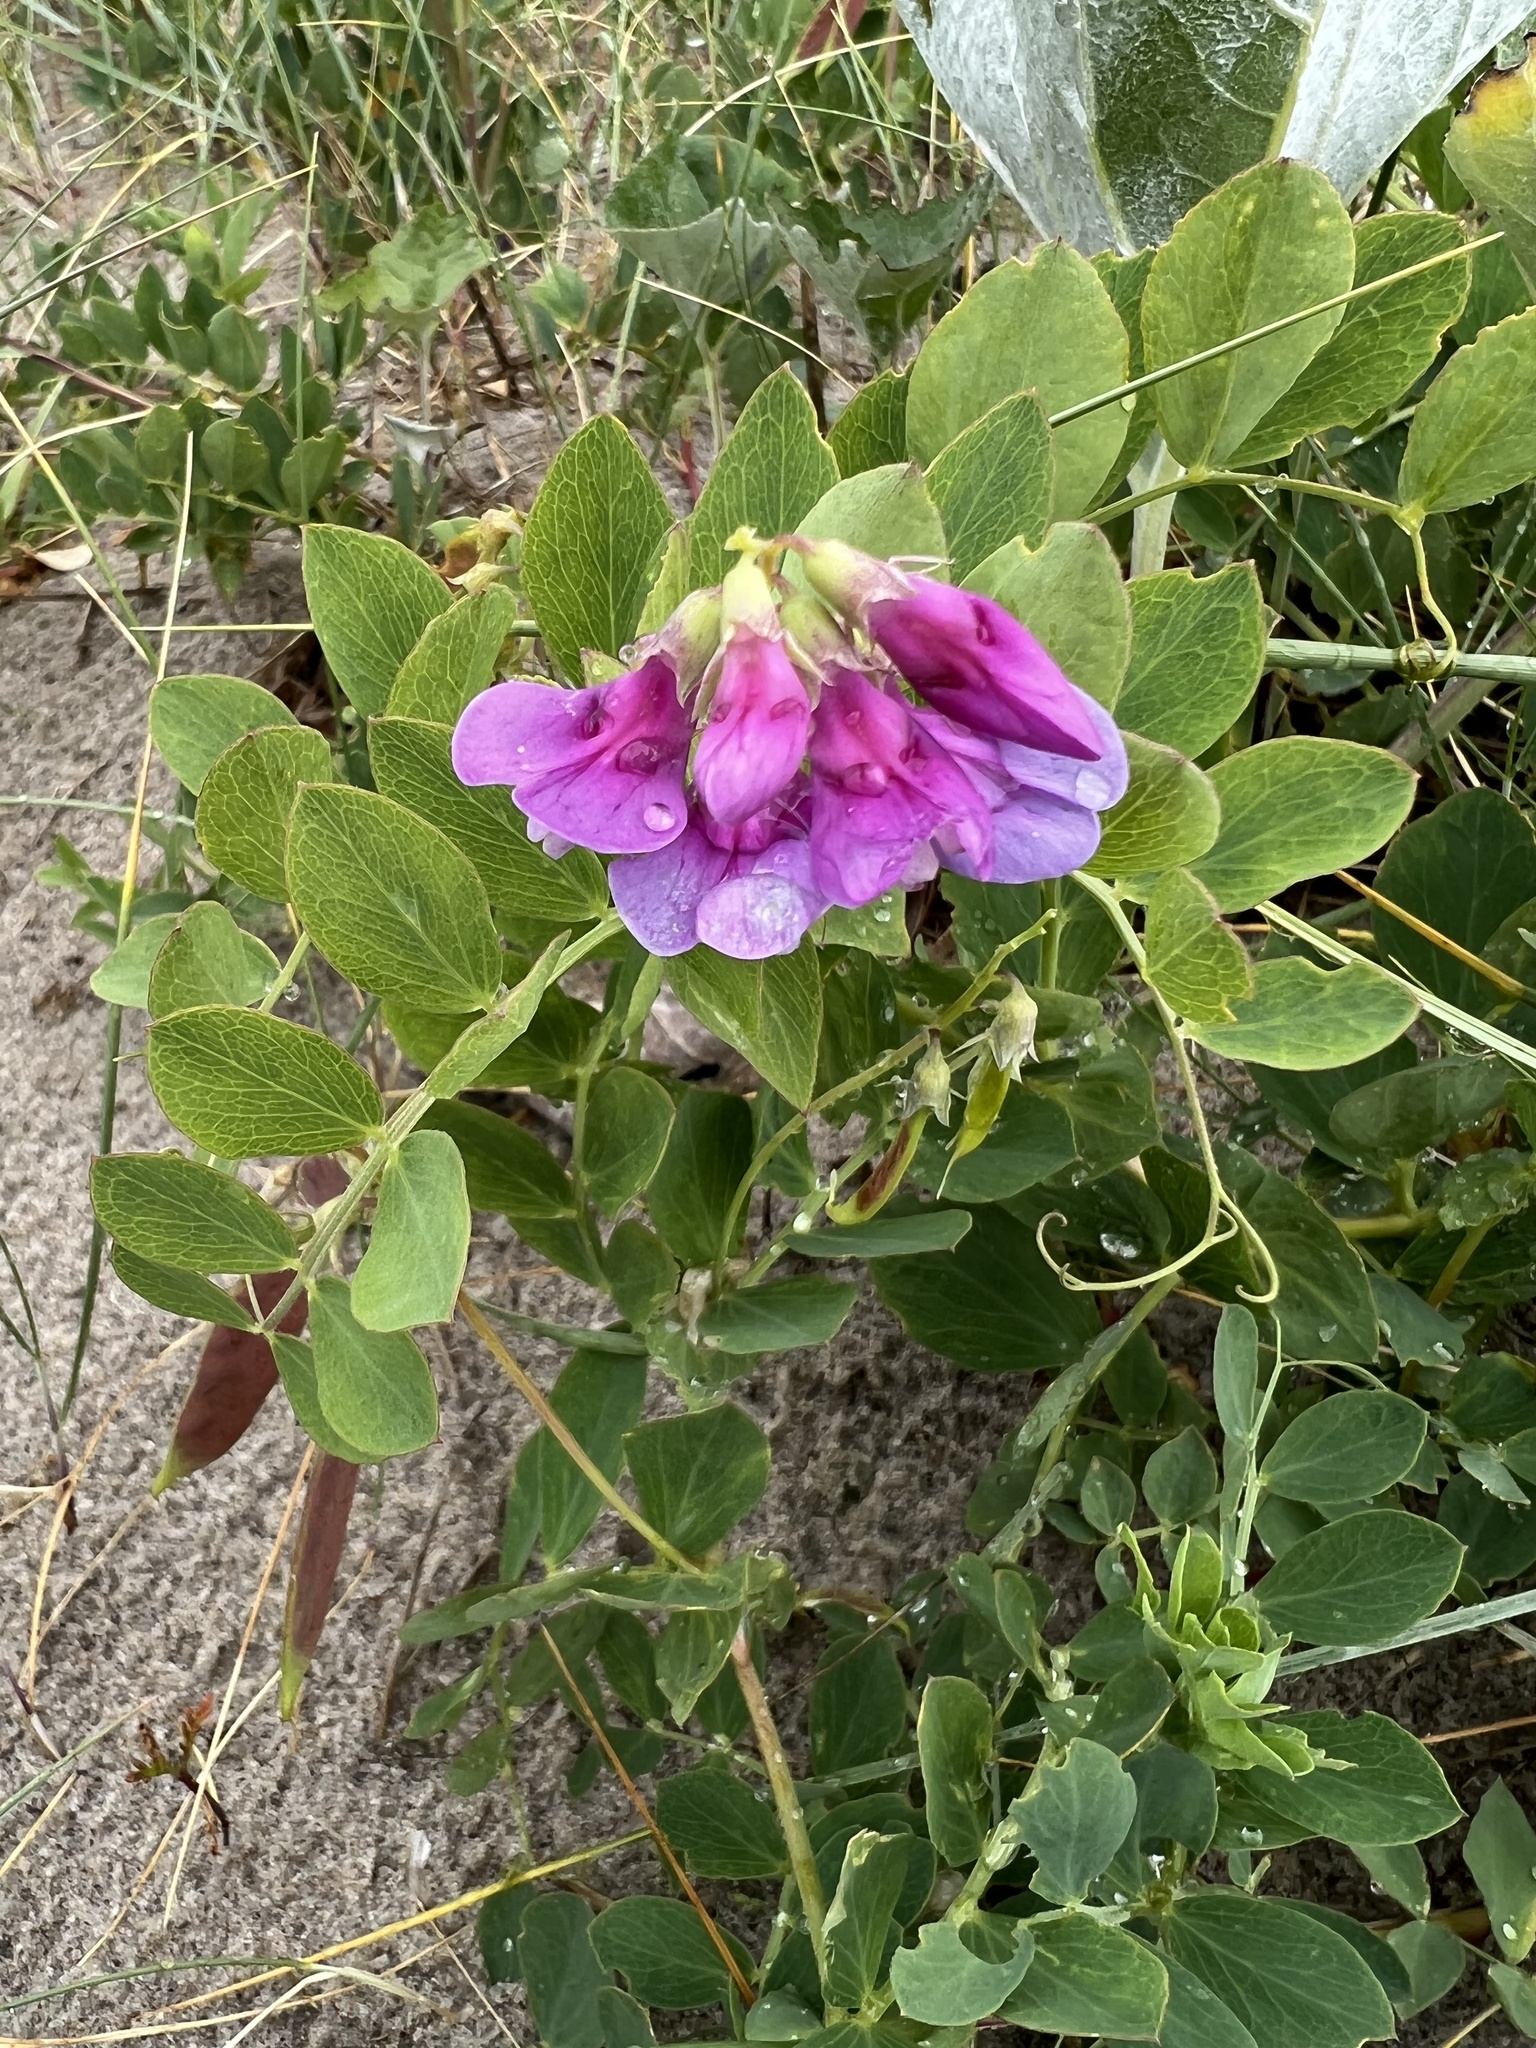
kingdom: Plantae
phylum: Tracheophyta
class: Magnoliopsida
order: Fabales
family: Fabaceae
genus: Lathyrus
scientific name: Lathyrus japonicus
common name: Sea pea
